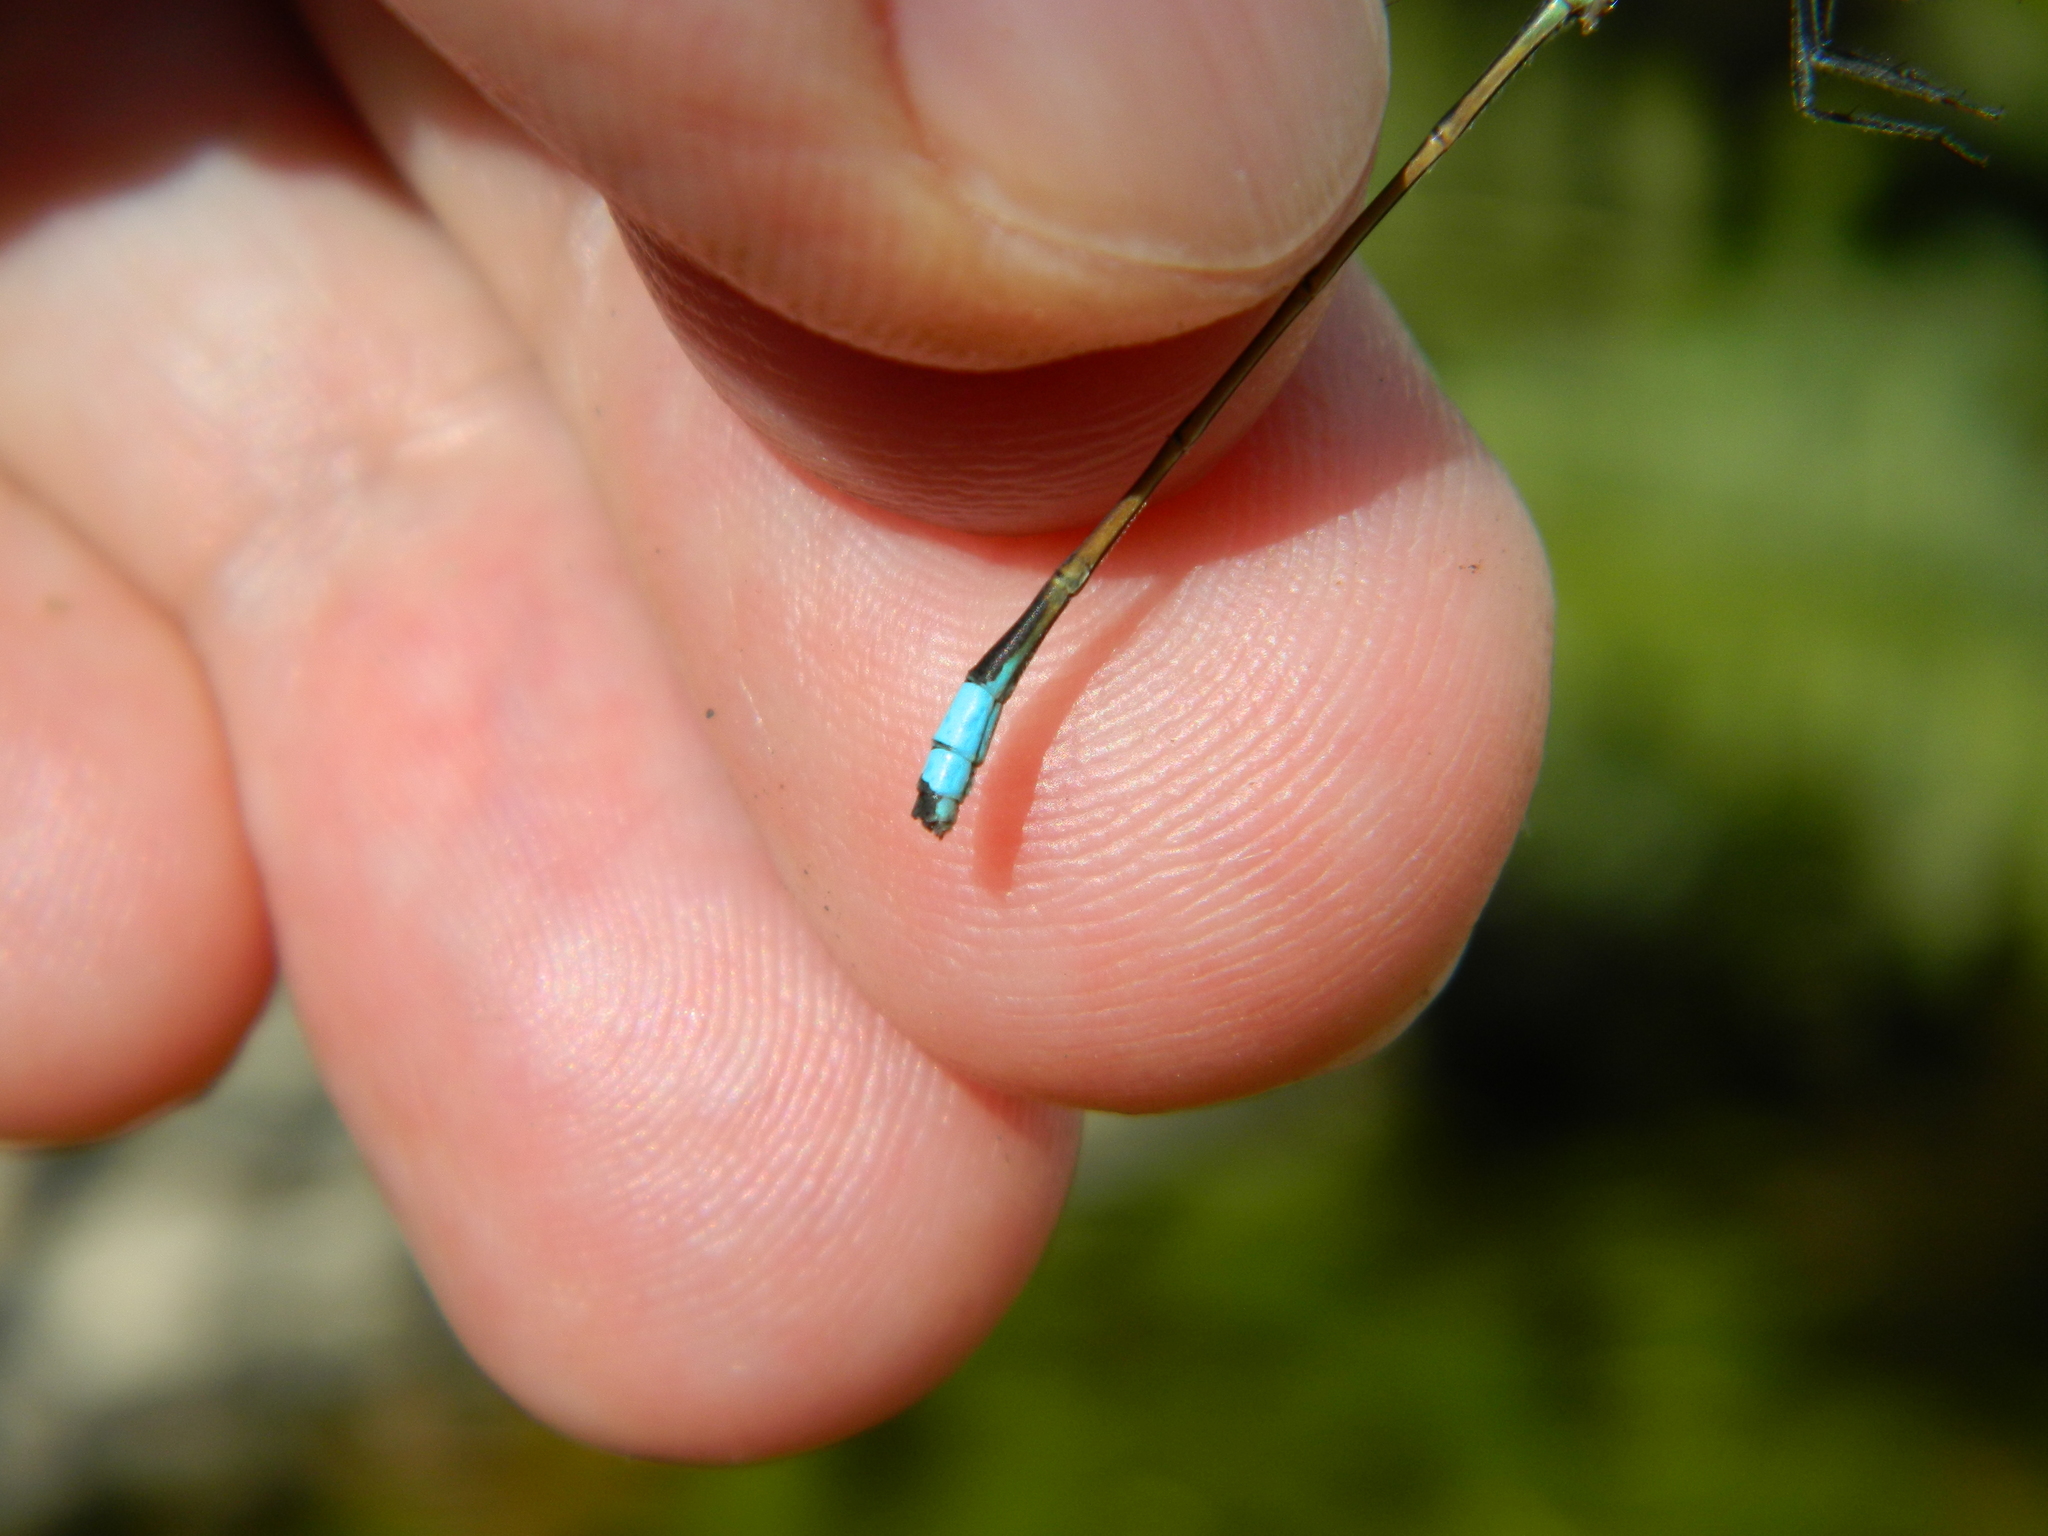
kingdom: Animalia
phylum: Arthropoda
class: Insecta
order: Odonata
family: Coenagrionidae
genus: Ischnura
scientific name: Ischnura ramburii
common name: Rambur's forktail
